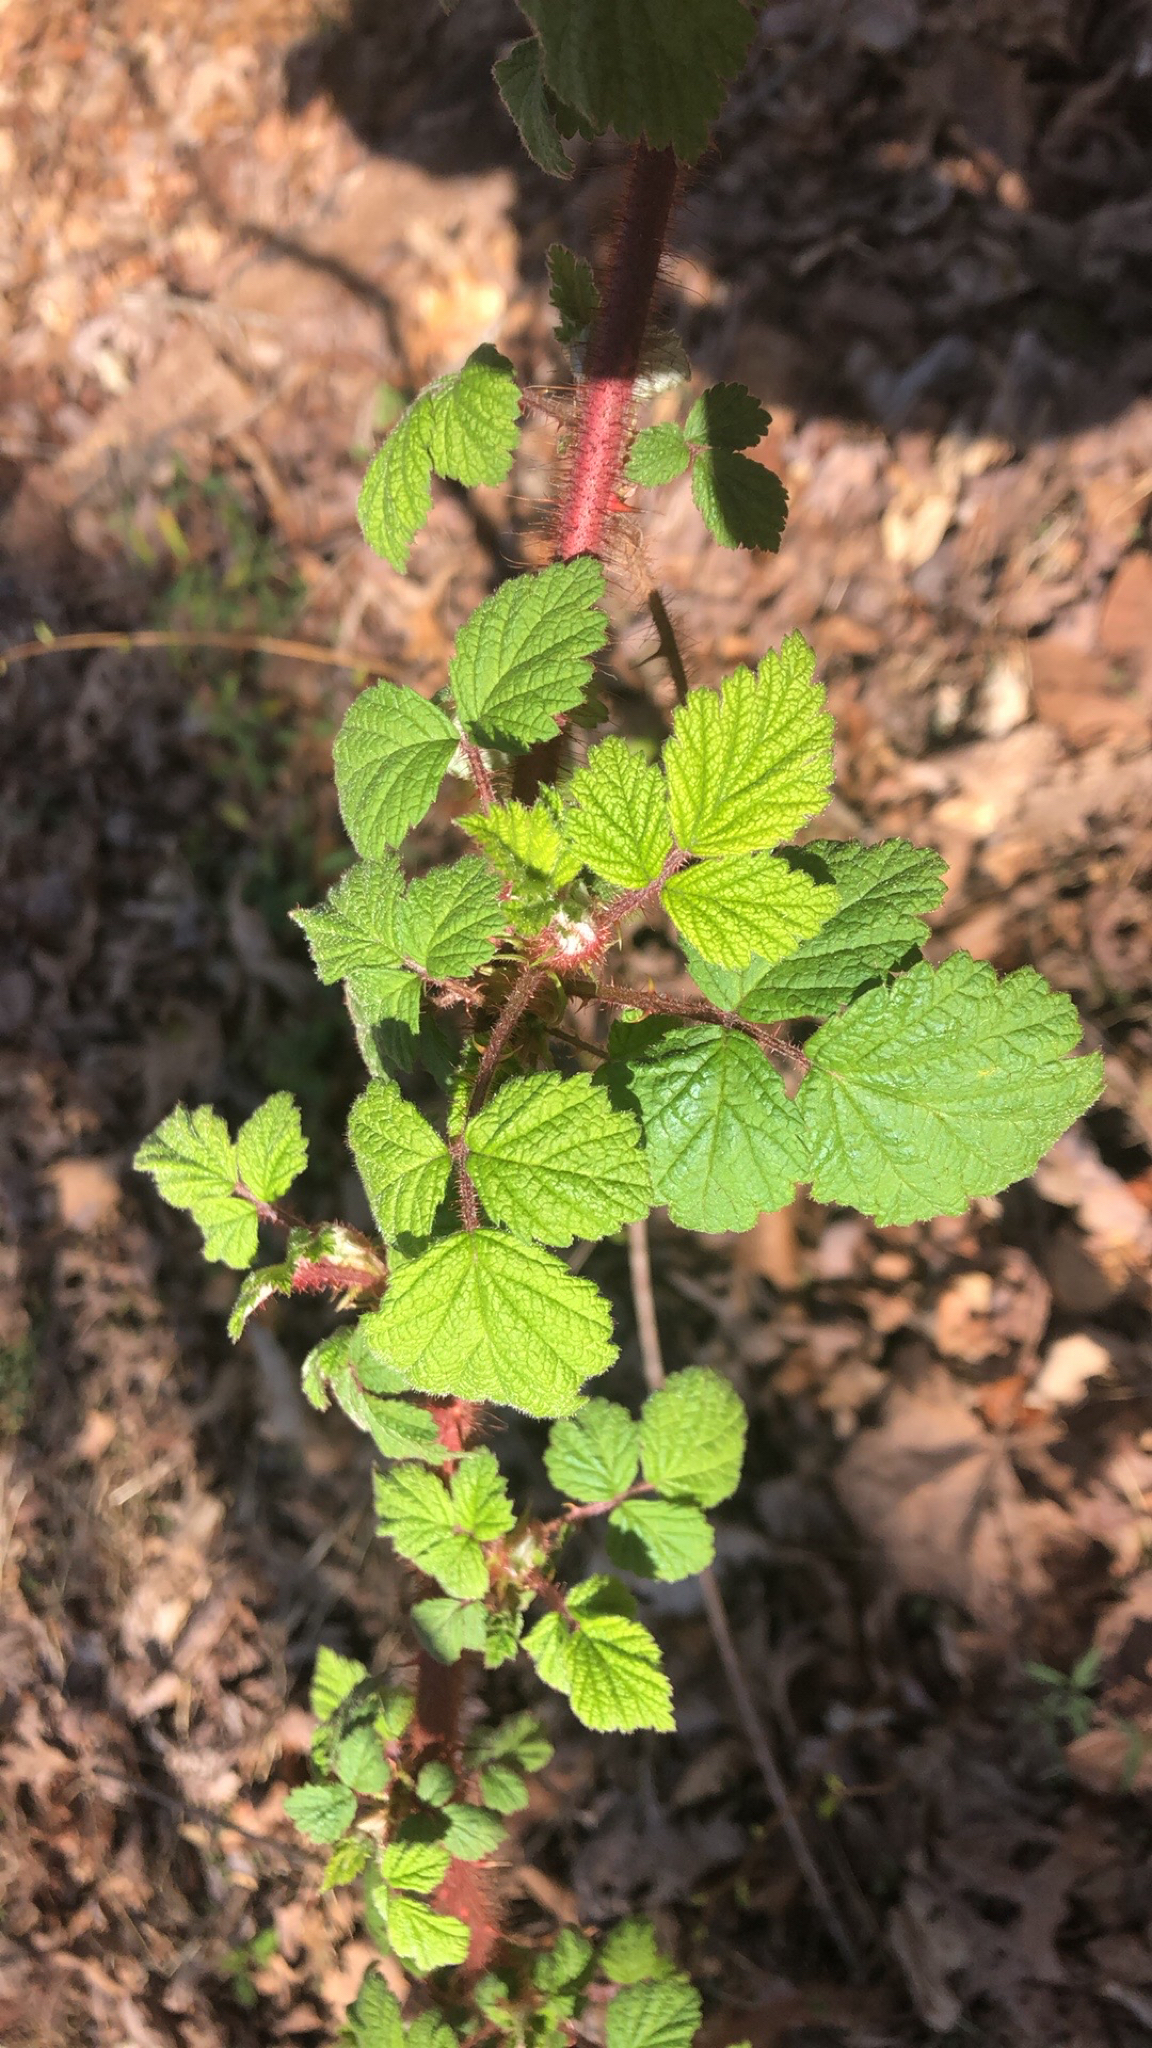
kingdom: Plantae
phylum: Tracheophyta
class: Magnoliopsida
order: Rosales
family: Rosaceae
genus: Rubus
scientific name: Rubus phoenicolasius
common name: Japanese wineberry
